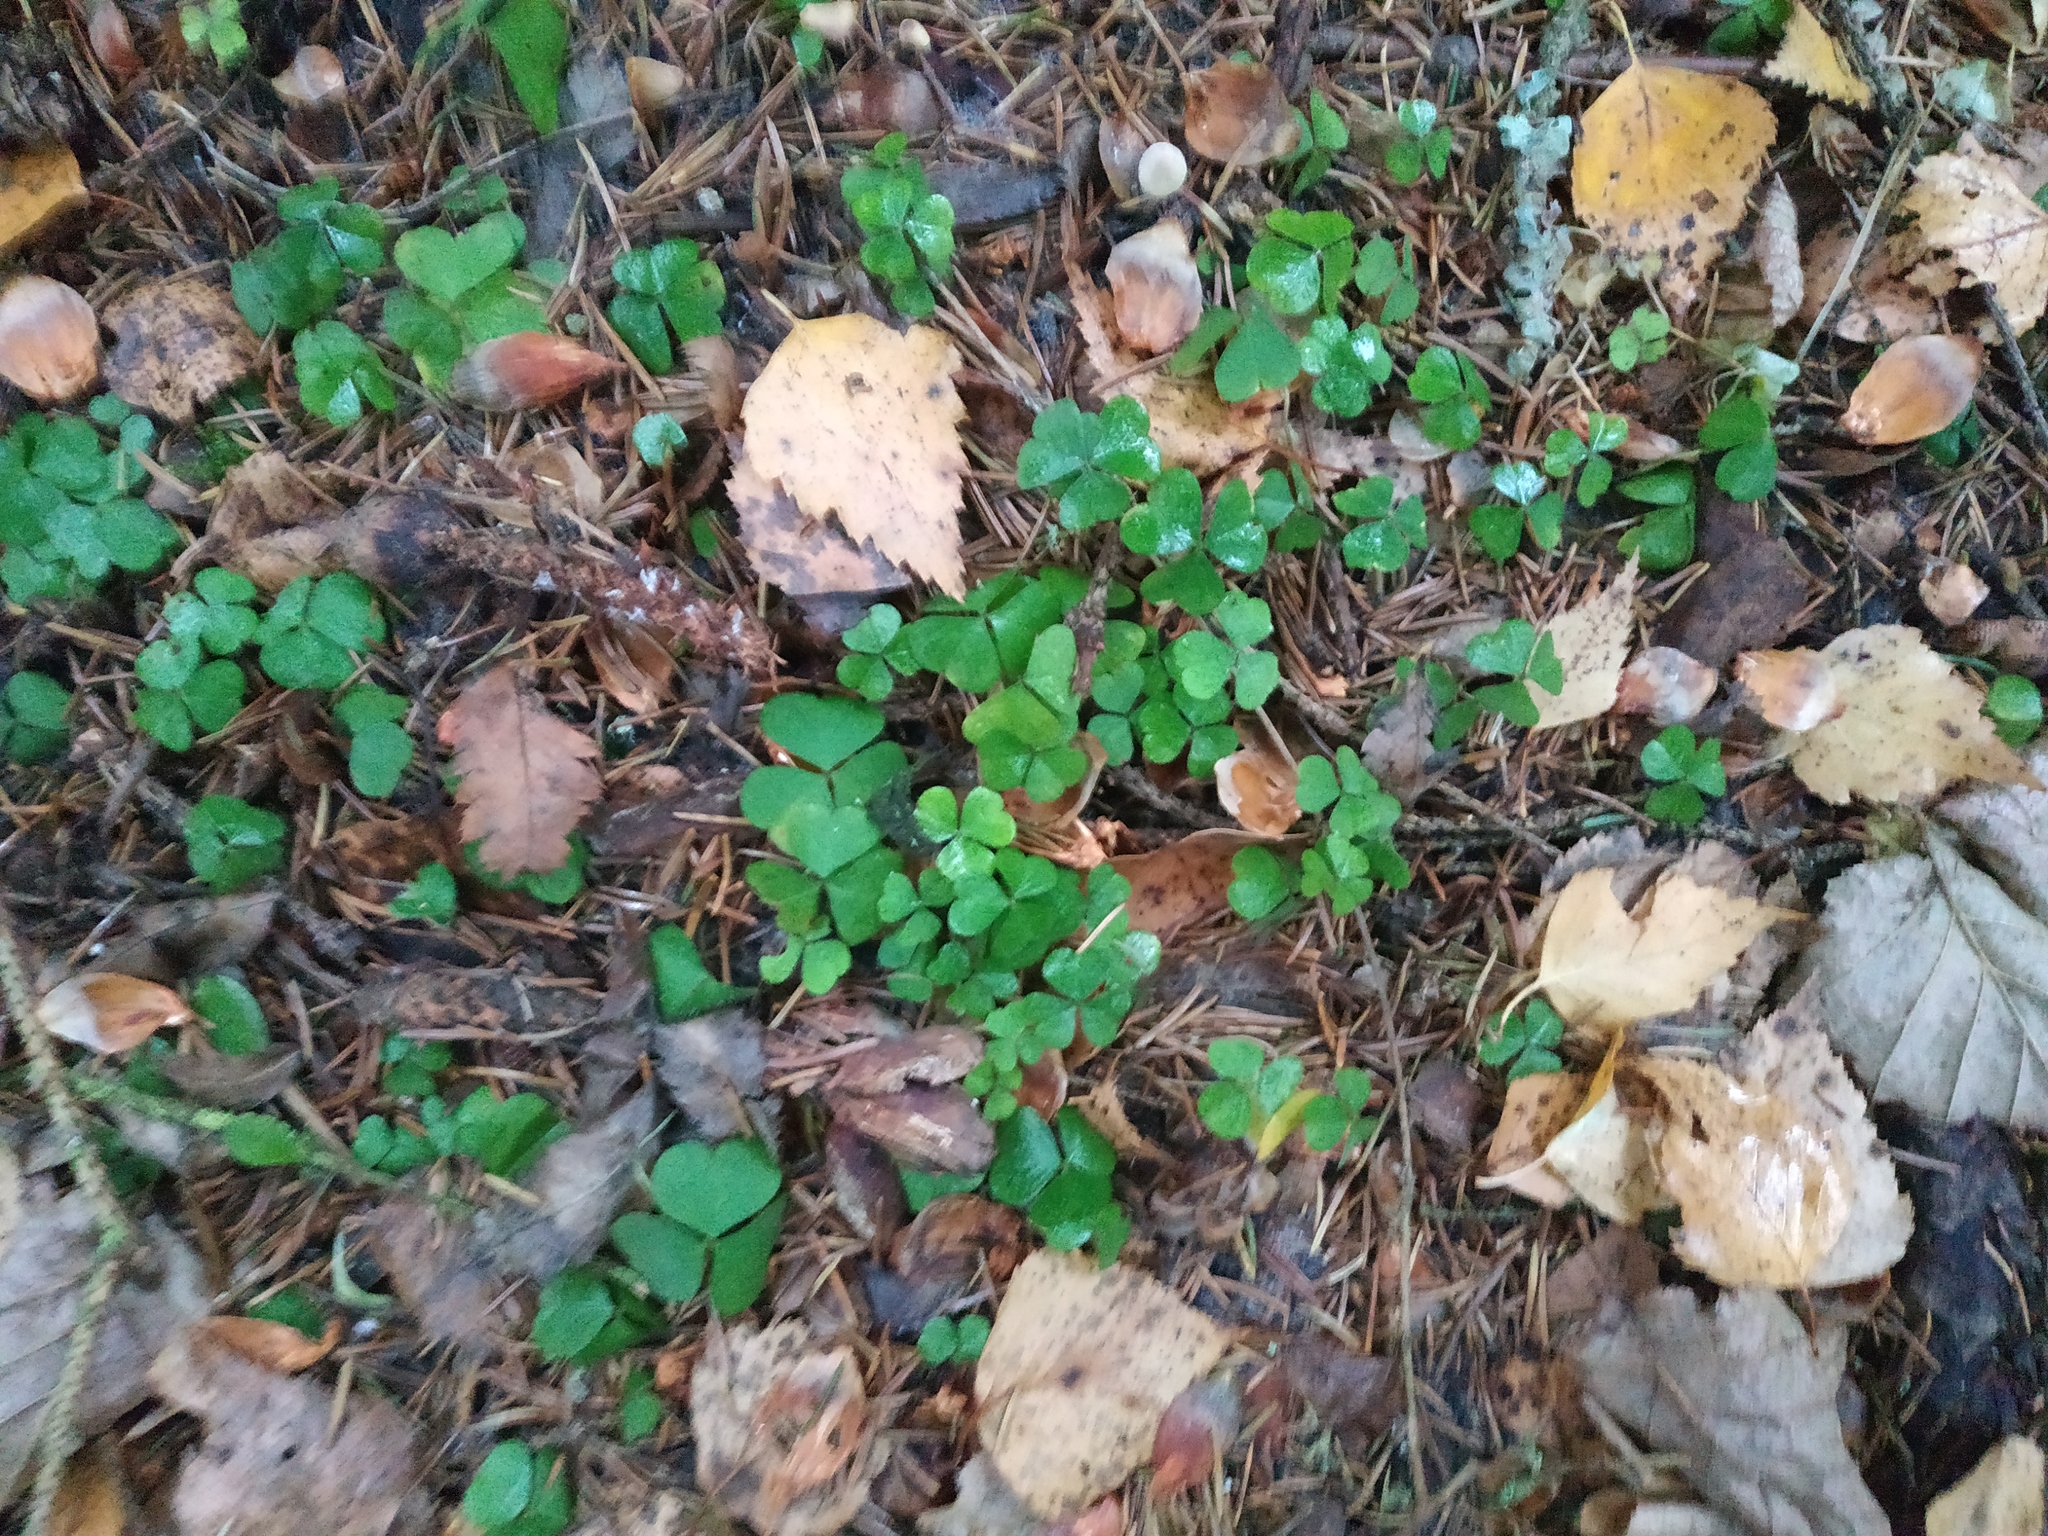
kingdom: Plantae
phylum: Tracheophyta
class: Magnoliopsida
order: Oxalidales
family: Oxalidaceae
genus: Oxalis
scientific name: Oxalis acetosella
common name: Wood-sorrel
